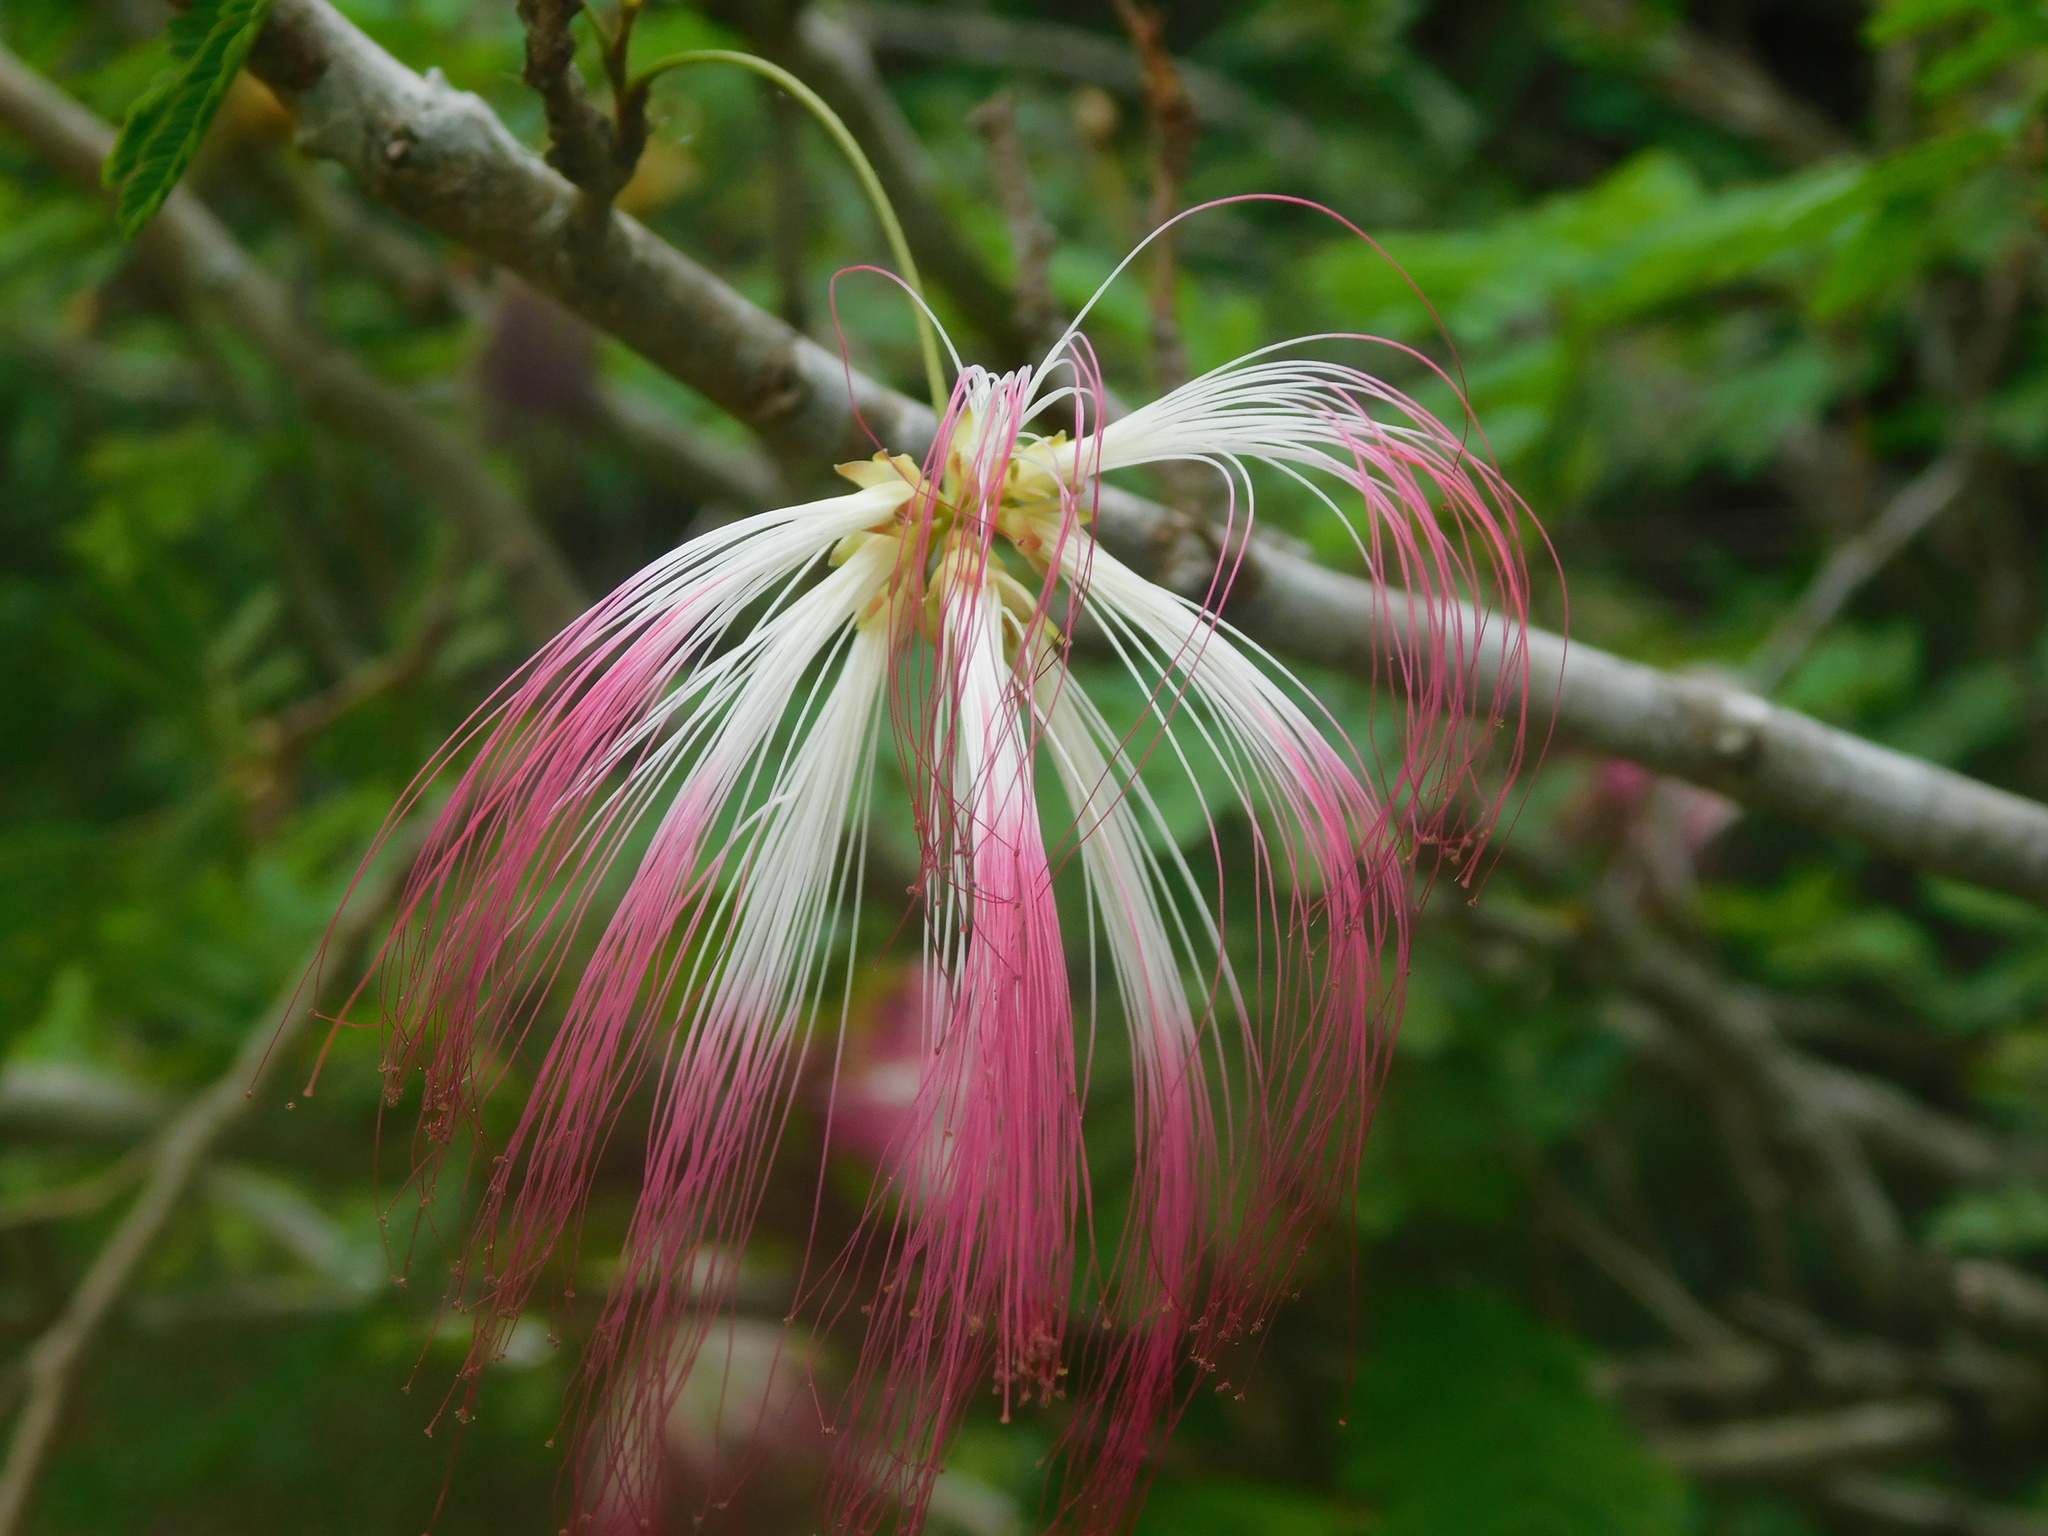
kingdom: Plantae
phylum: Tracheophyta
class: Magnoliopsida
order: Fabales
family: Fabaceae
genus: Calliandra
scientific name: Calliandra selloi
